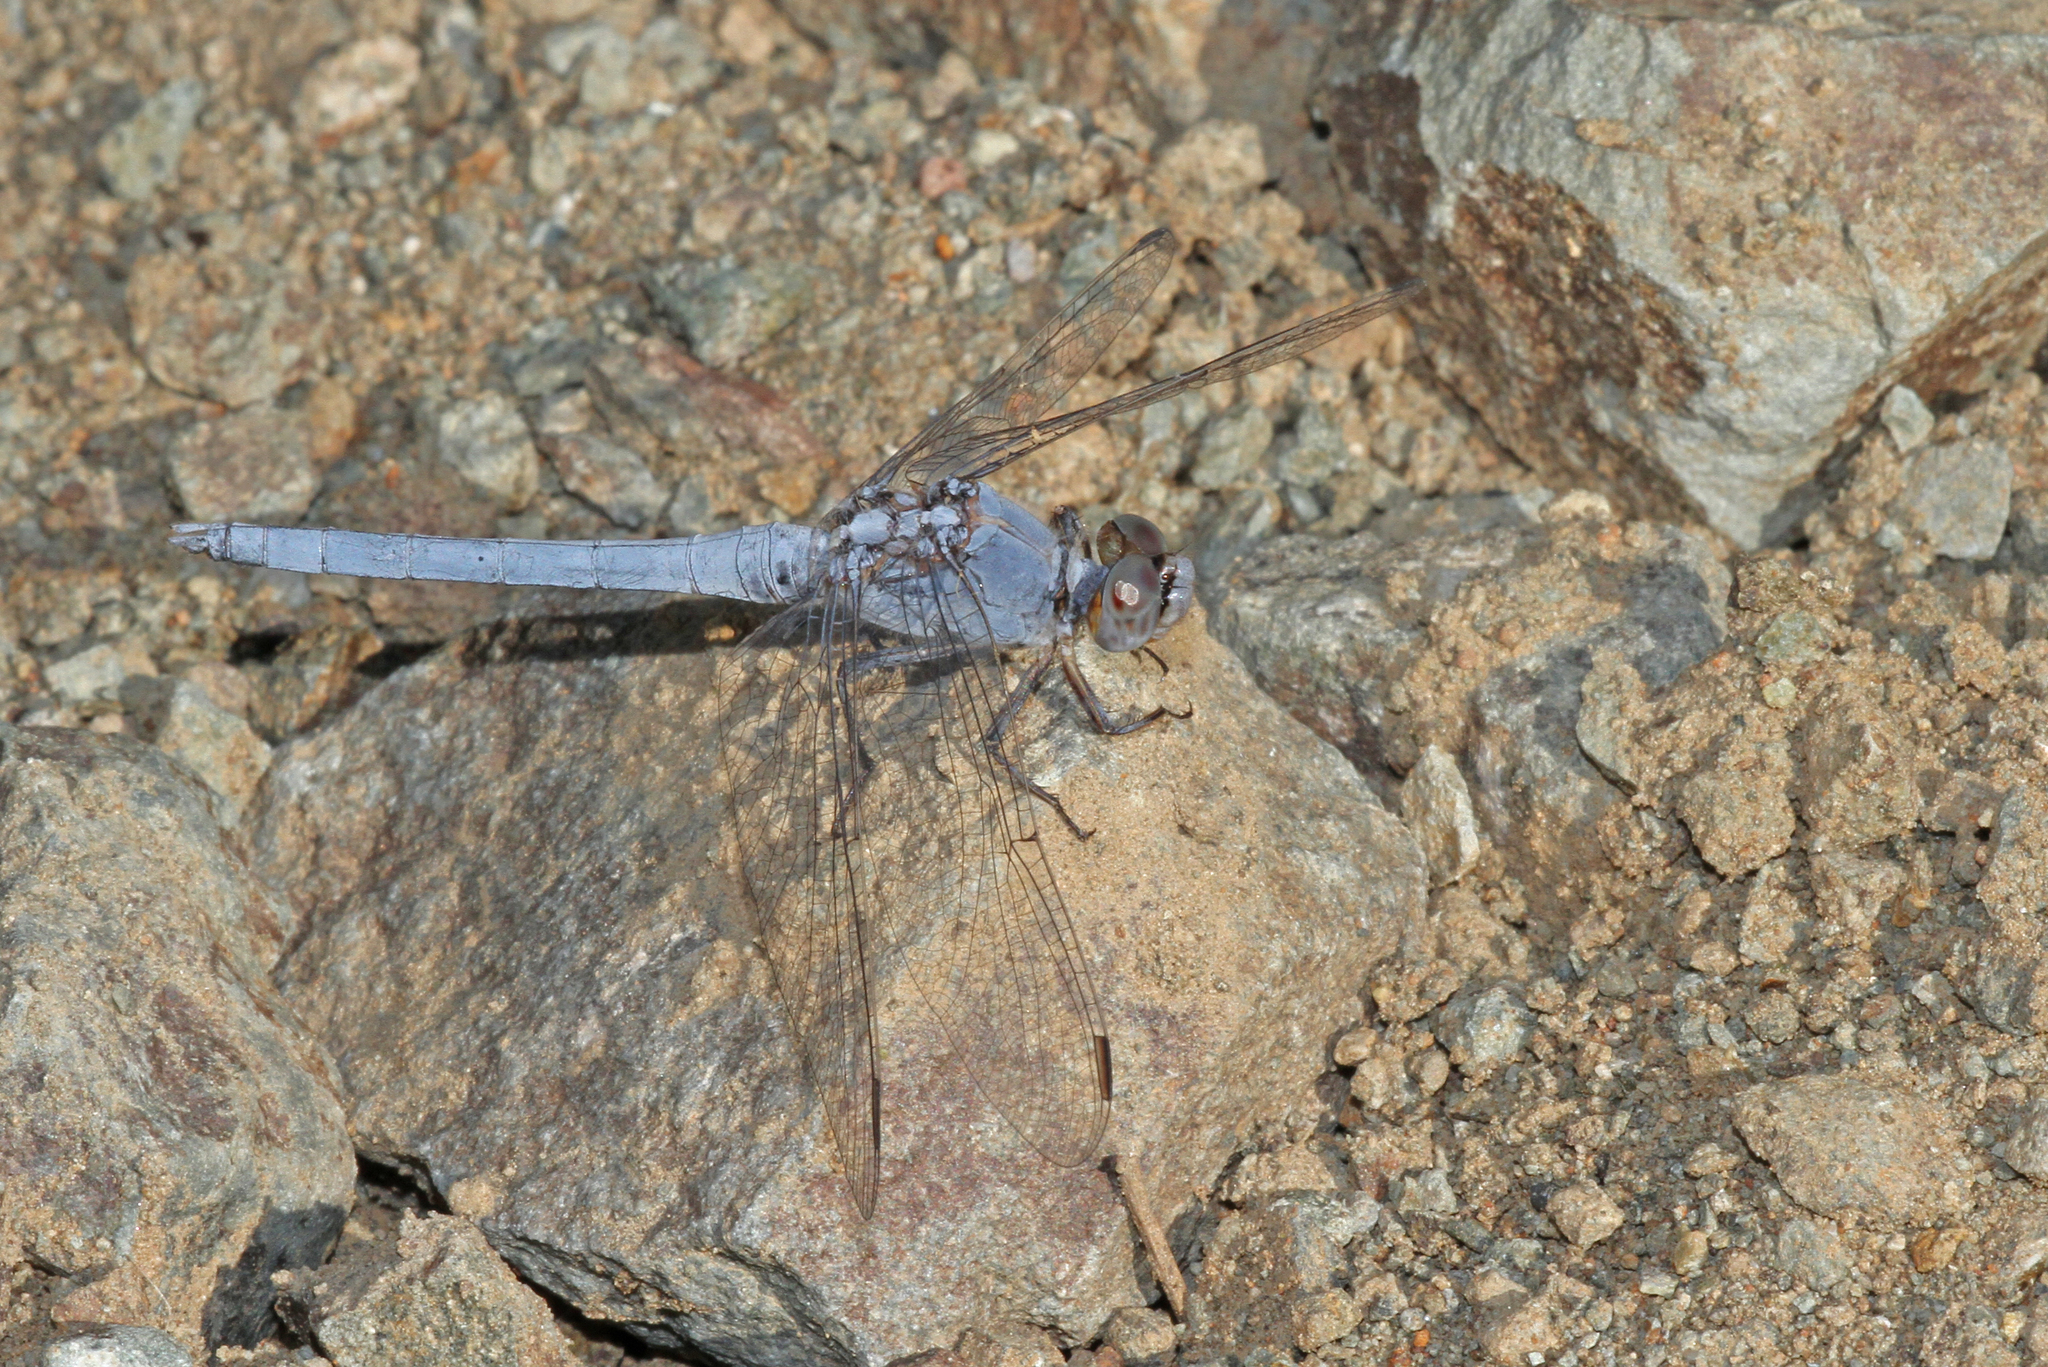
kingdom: Animalia
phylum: Arthropoda
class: Insecta
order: Odonata
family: Libellulidae
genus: Orthetrum
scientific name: Orthetrum taeniolatum
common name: Small skimmer
